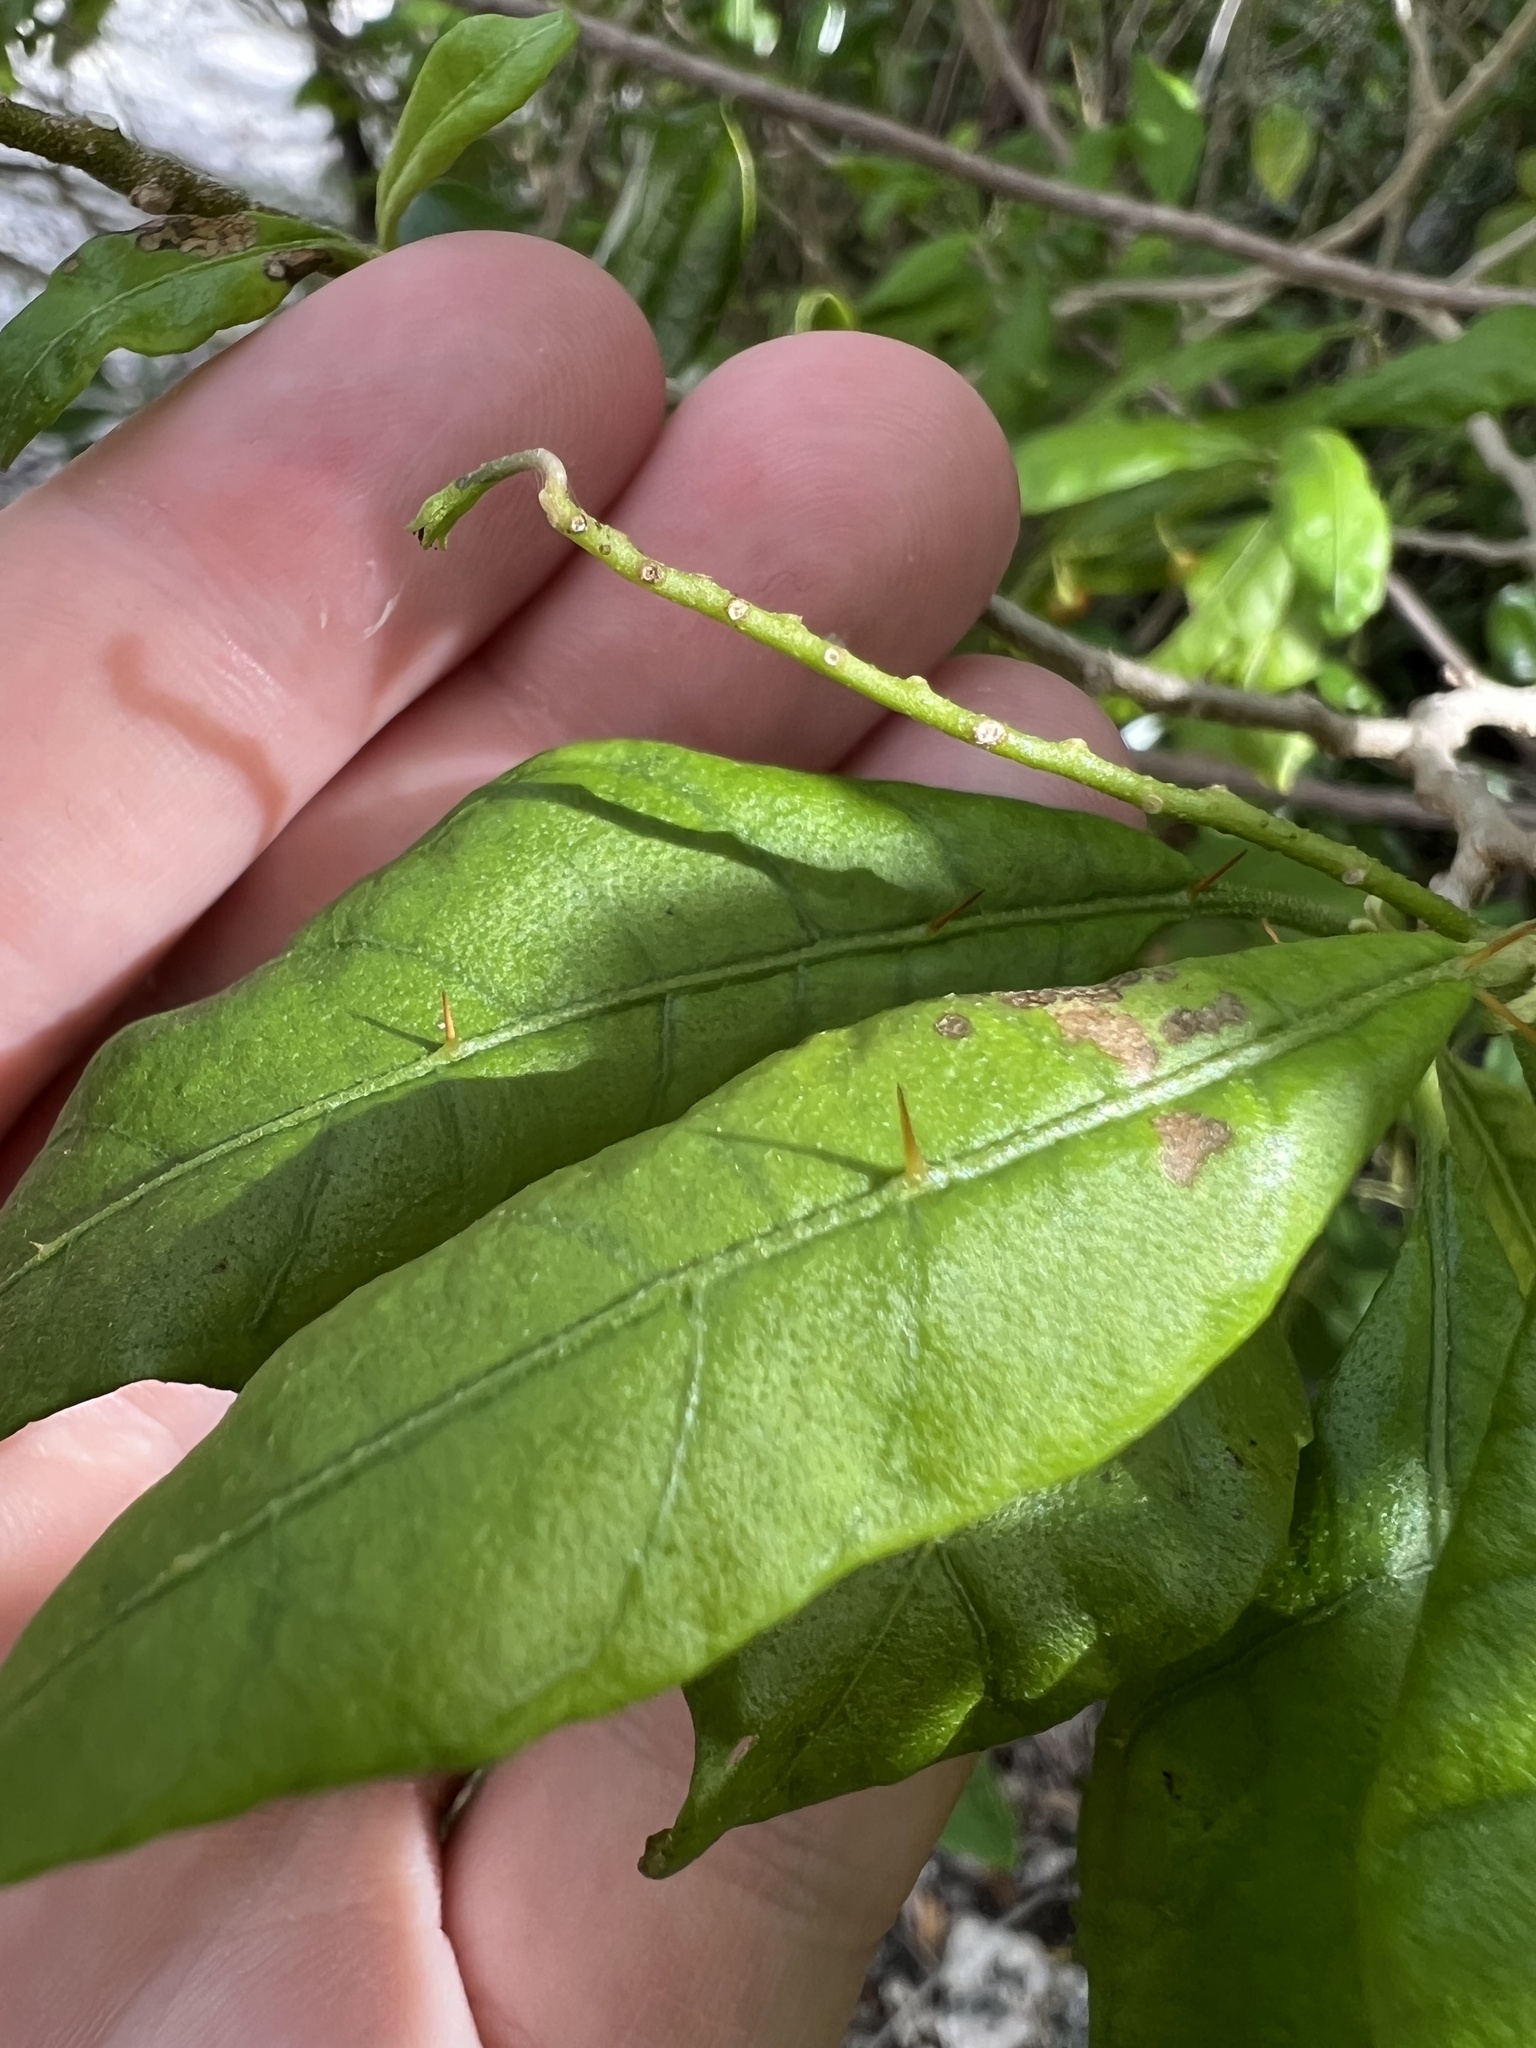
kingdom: Plantae
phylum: Tracheophyta
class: Magnoliopsida
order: Solanales
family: Solanaceae
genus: Solanum
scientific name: Solanum bahamense
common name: Canker-berry
